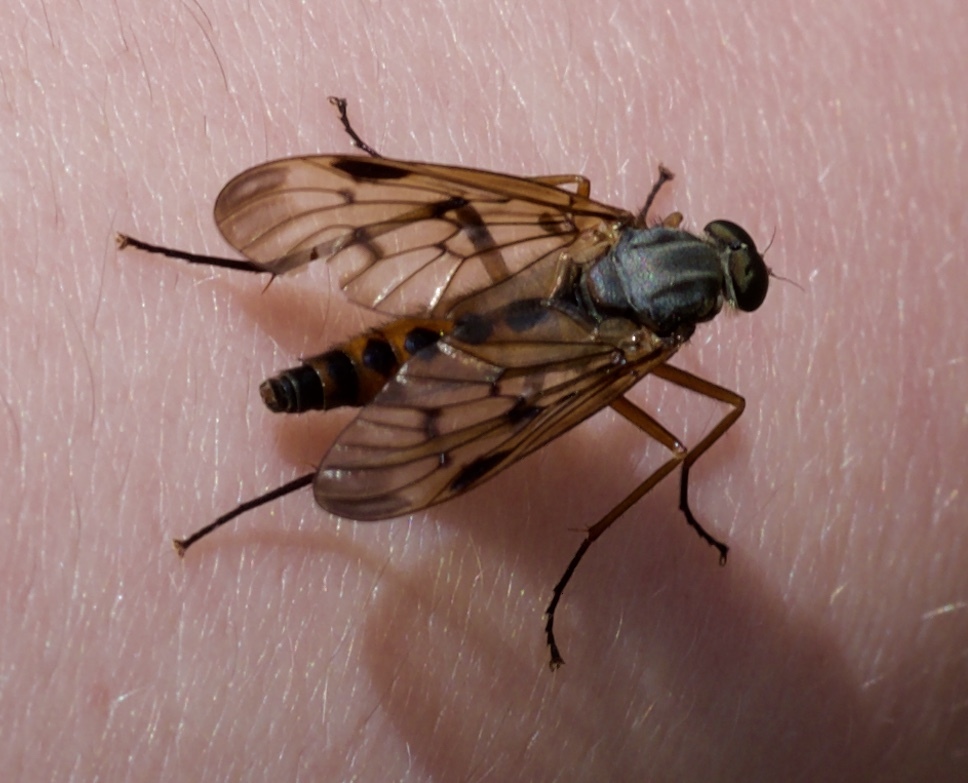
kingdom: Animalia
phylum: Arthropoda
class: Insecta
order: Diptera
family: Rhagionidae
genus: Rhagio
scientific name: Rhagio scolopacea
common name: Downlooker snipefly
